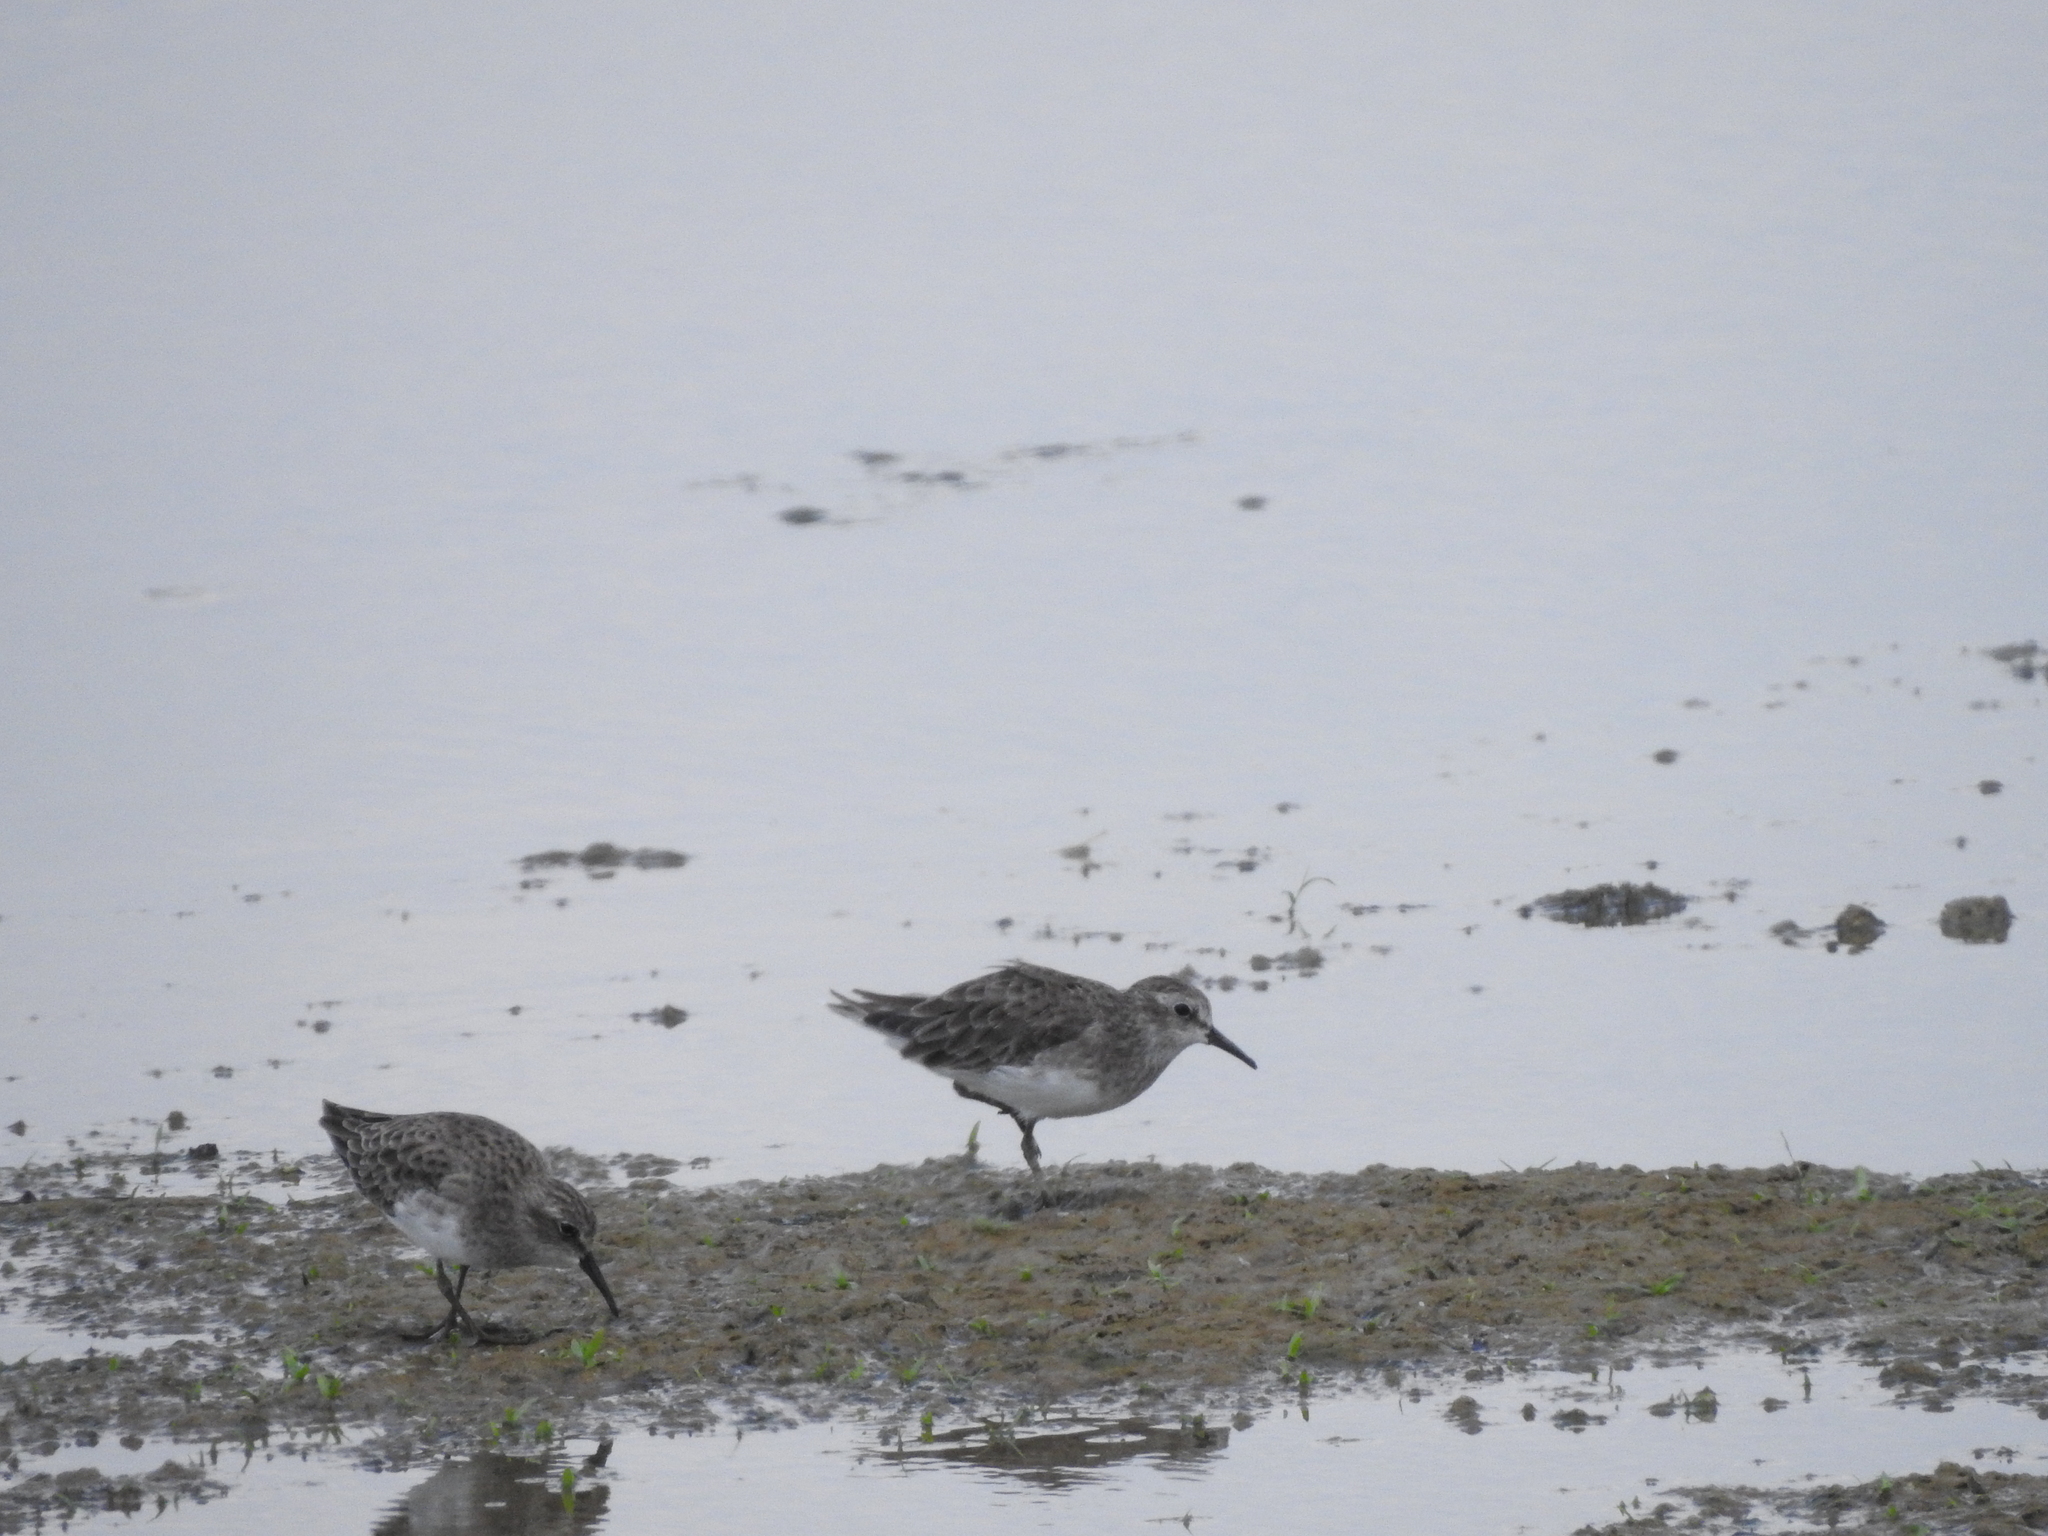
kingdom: Animalia
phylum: Chordata
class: Aves
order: Charadriiformes
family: Scolopacidae
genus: Calidris
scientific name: Calidris minutilla
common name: Least sandpiper
